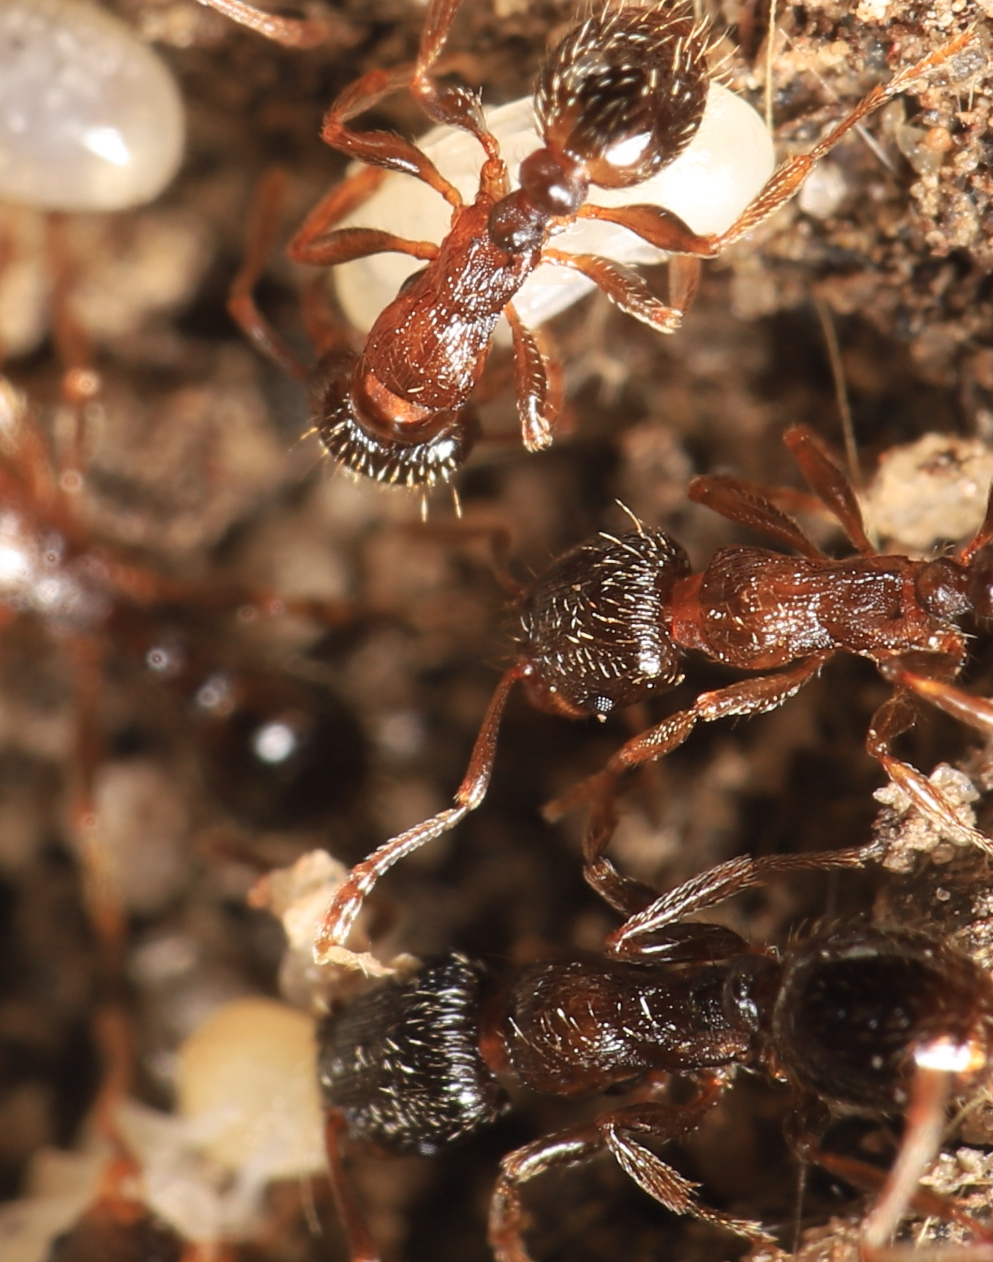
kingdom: Animalia
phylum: Arthropoda
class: Insecta
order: Hymenoptera
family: Formicidae
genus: Tetramorium
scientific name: Tetramorium immigrans
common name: Pavement ant
